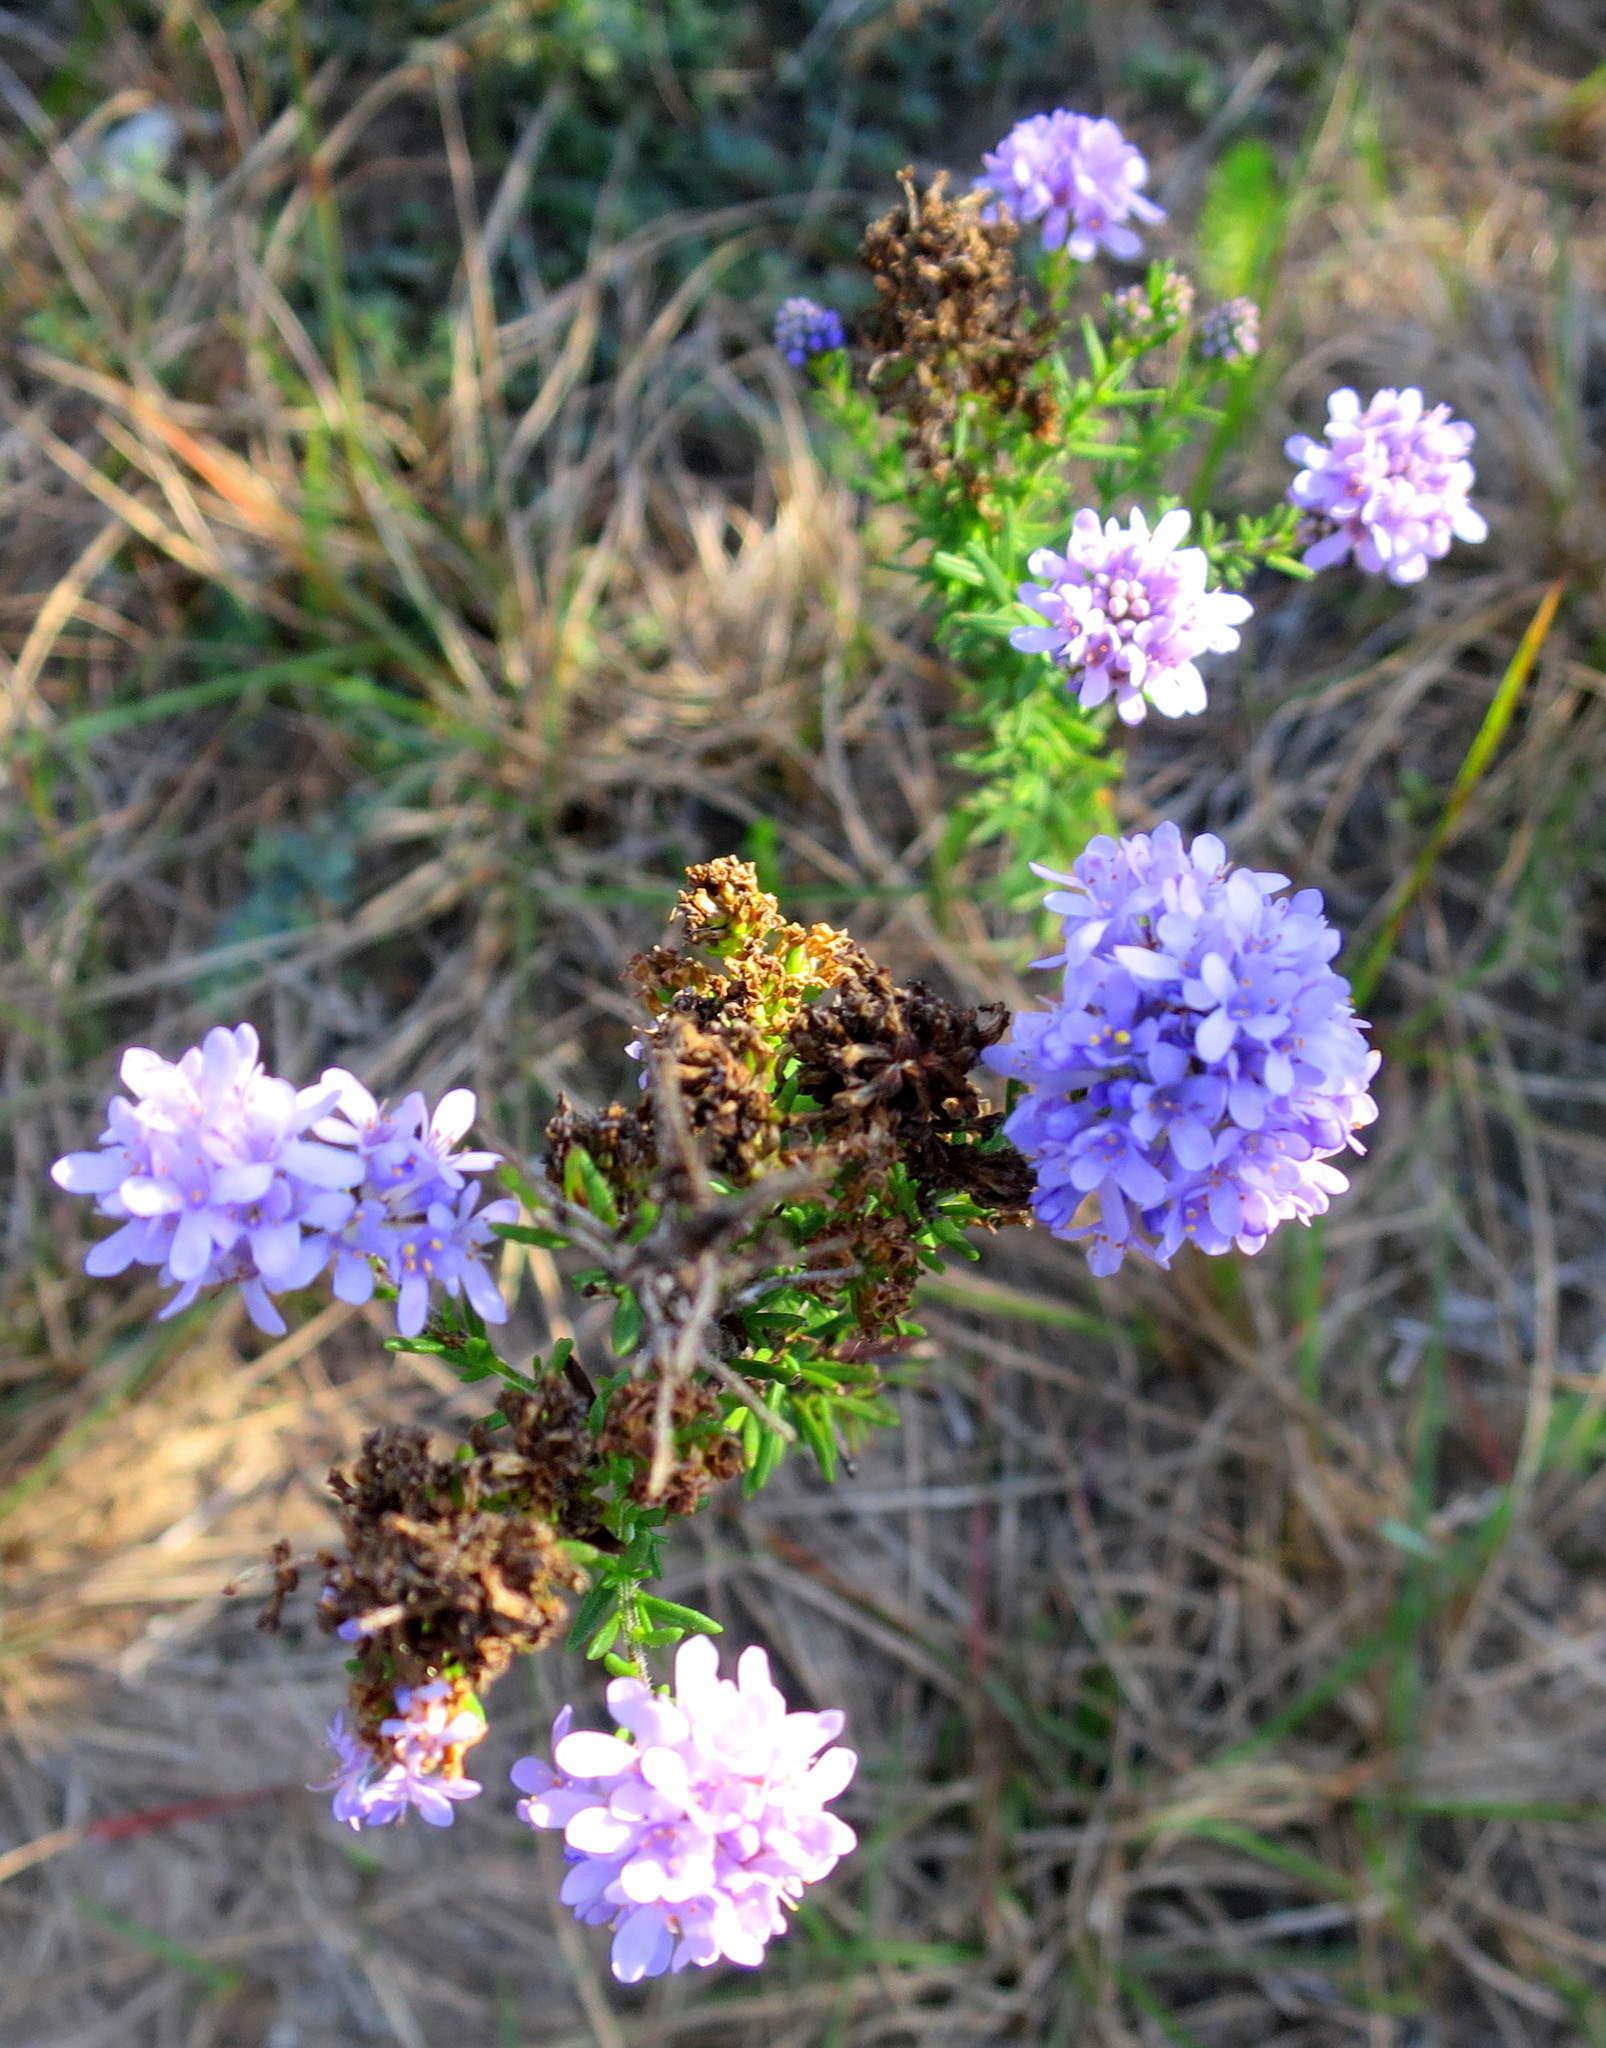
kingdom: Plantae
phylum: Tracheophyta
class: Magnoliopsida
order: Lamiales
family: Scrophulariaceae
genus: Selago
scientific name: Selago burchellii
